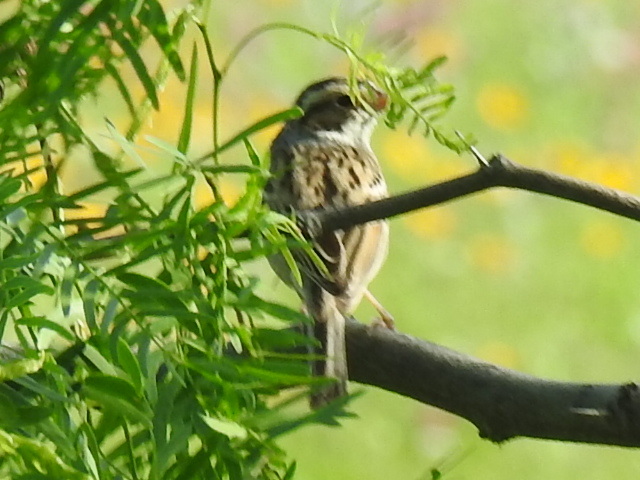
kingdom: Animalia
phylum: Chordata
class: Aves
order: Passeriformes
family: Passerellidae
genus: Passerculus
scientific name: Passerculus sandwichensis
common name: Savannah sparrow
